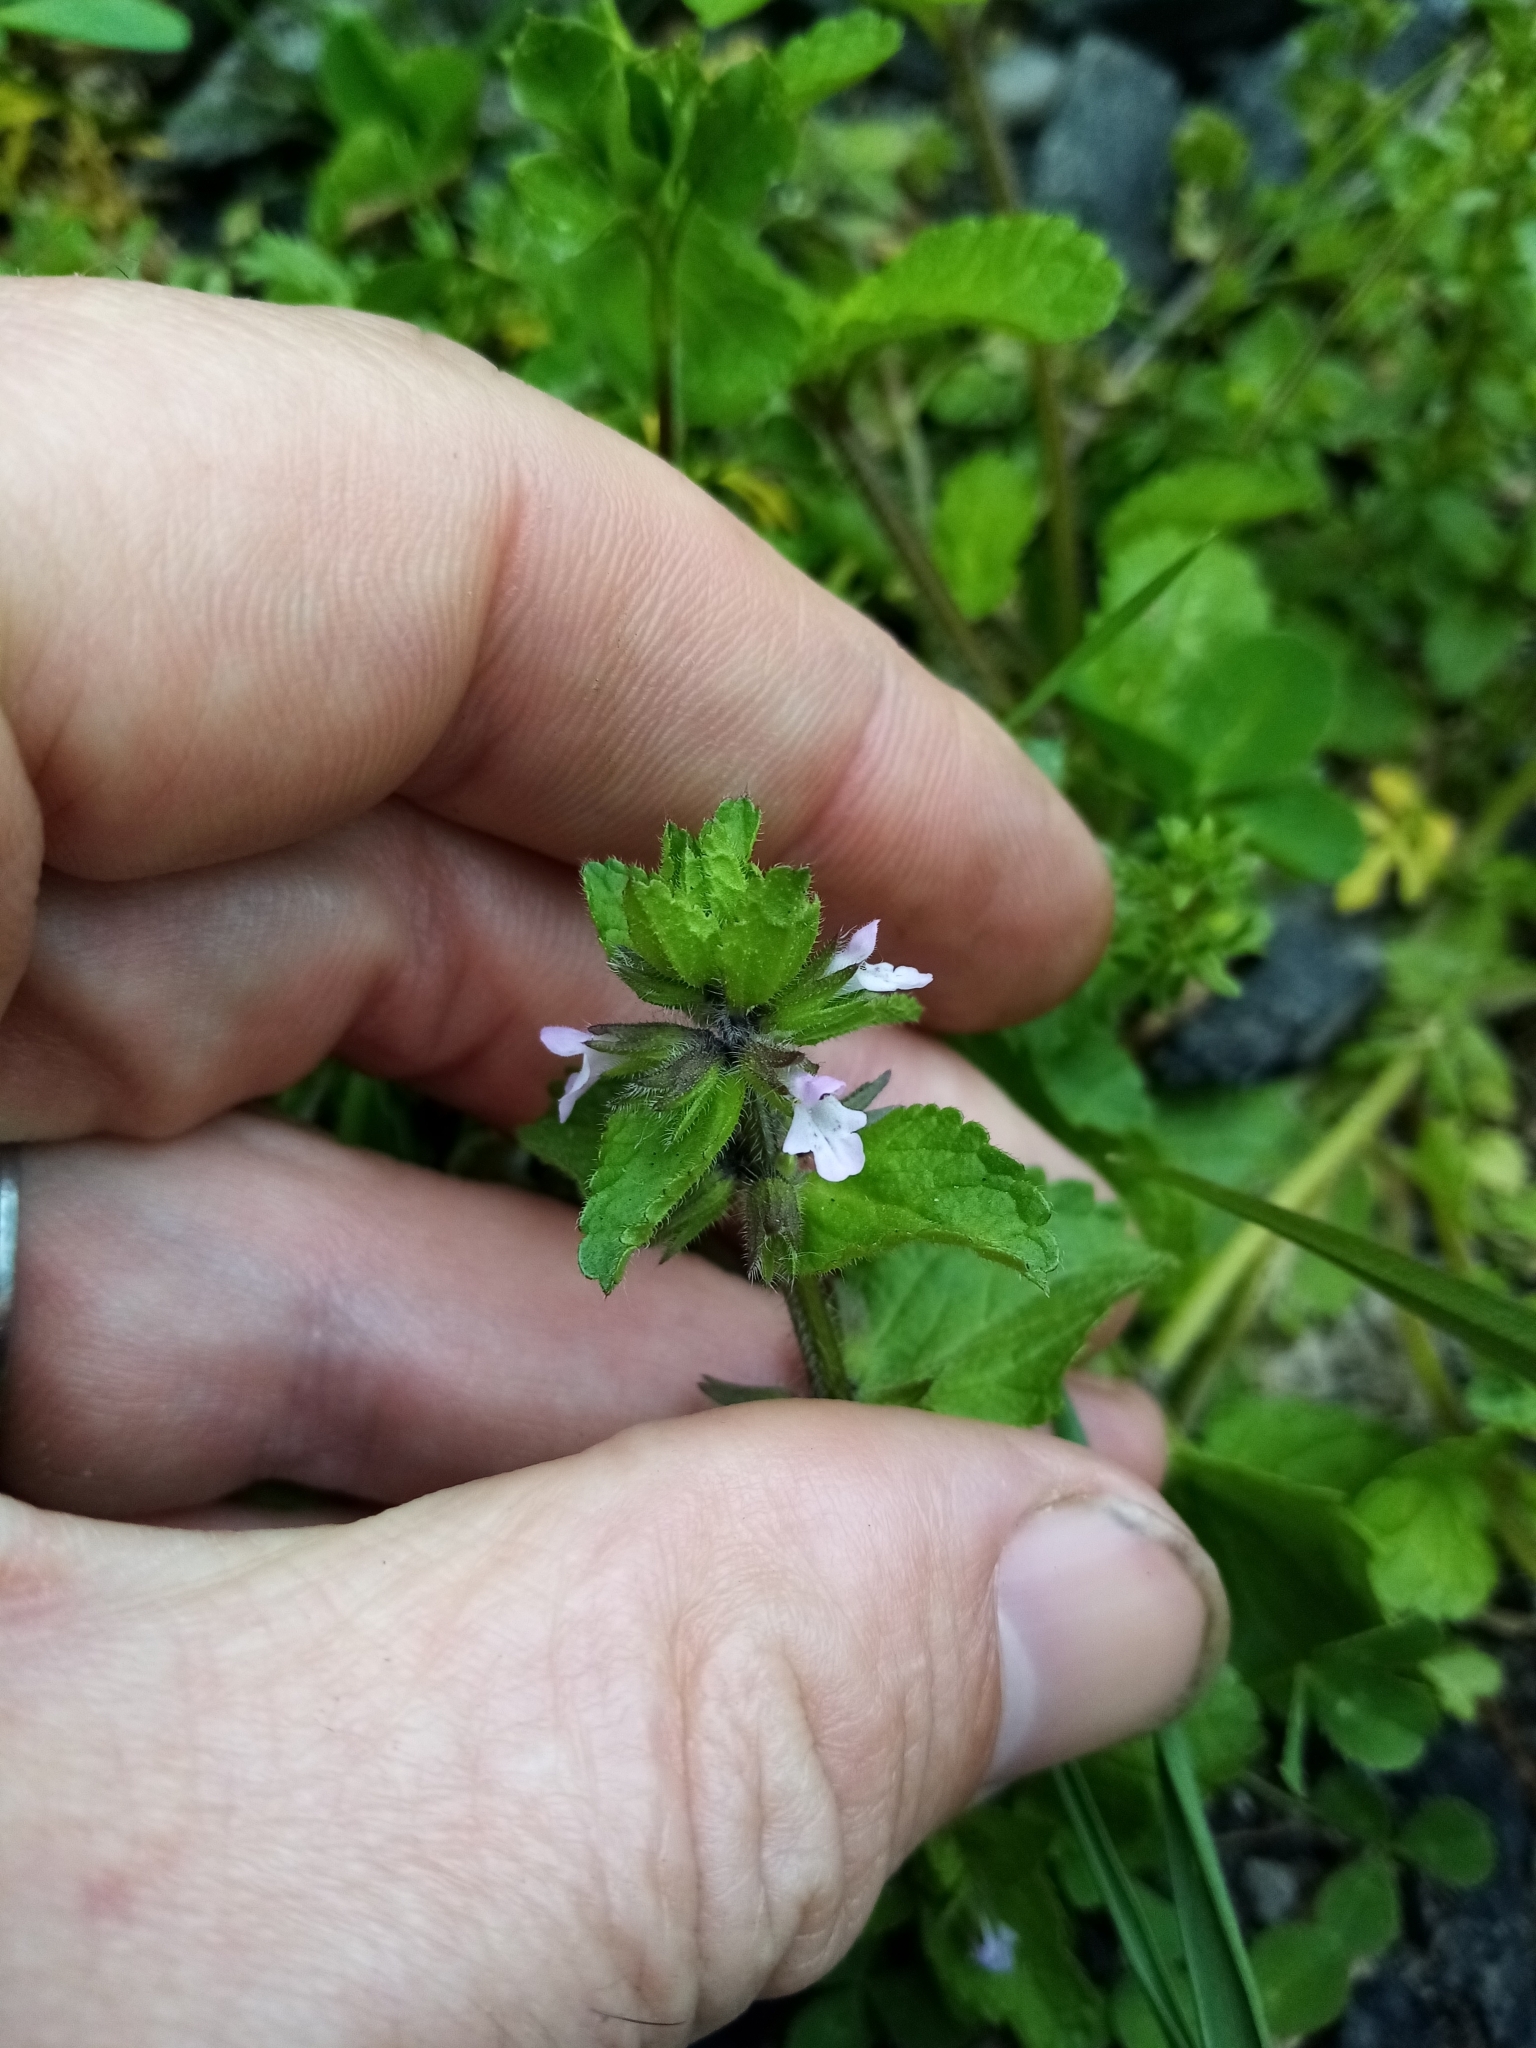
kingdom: Plantae
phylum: Tracheophyta
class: Magnoliopsida
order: Lamiales
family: Lamiaceae
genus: Stachys
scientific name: Stachys arvensis
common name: Field woundwort
